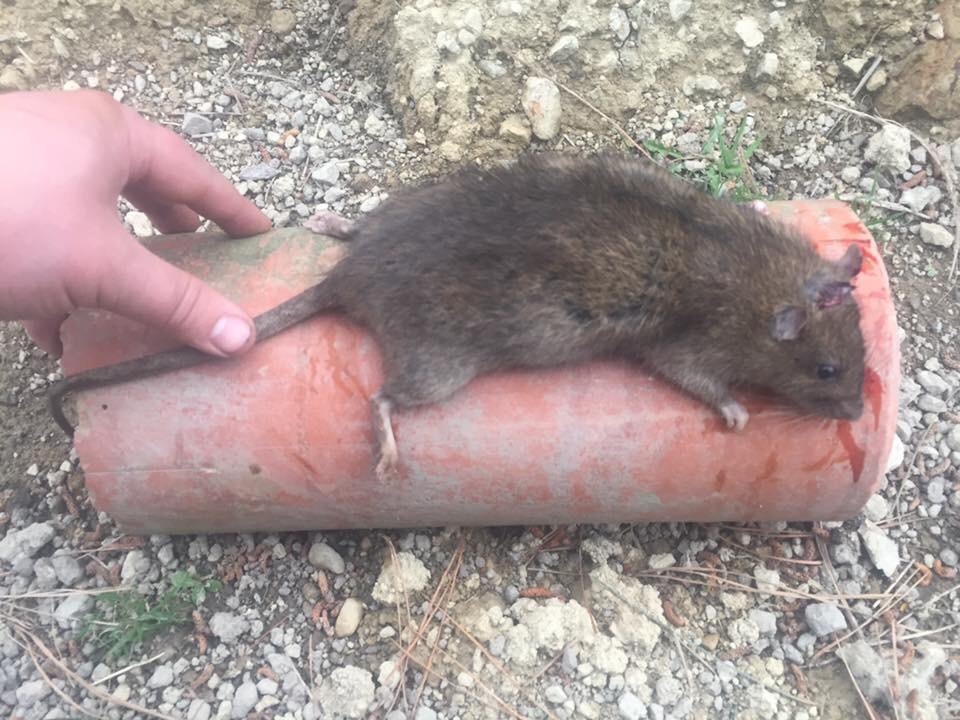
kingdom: Animalia
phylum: Chordata
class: Mammalia
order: Rodentia
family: Muridae
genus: Rattus
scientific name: Rattus norvegicus
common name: Brown rat
